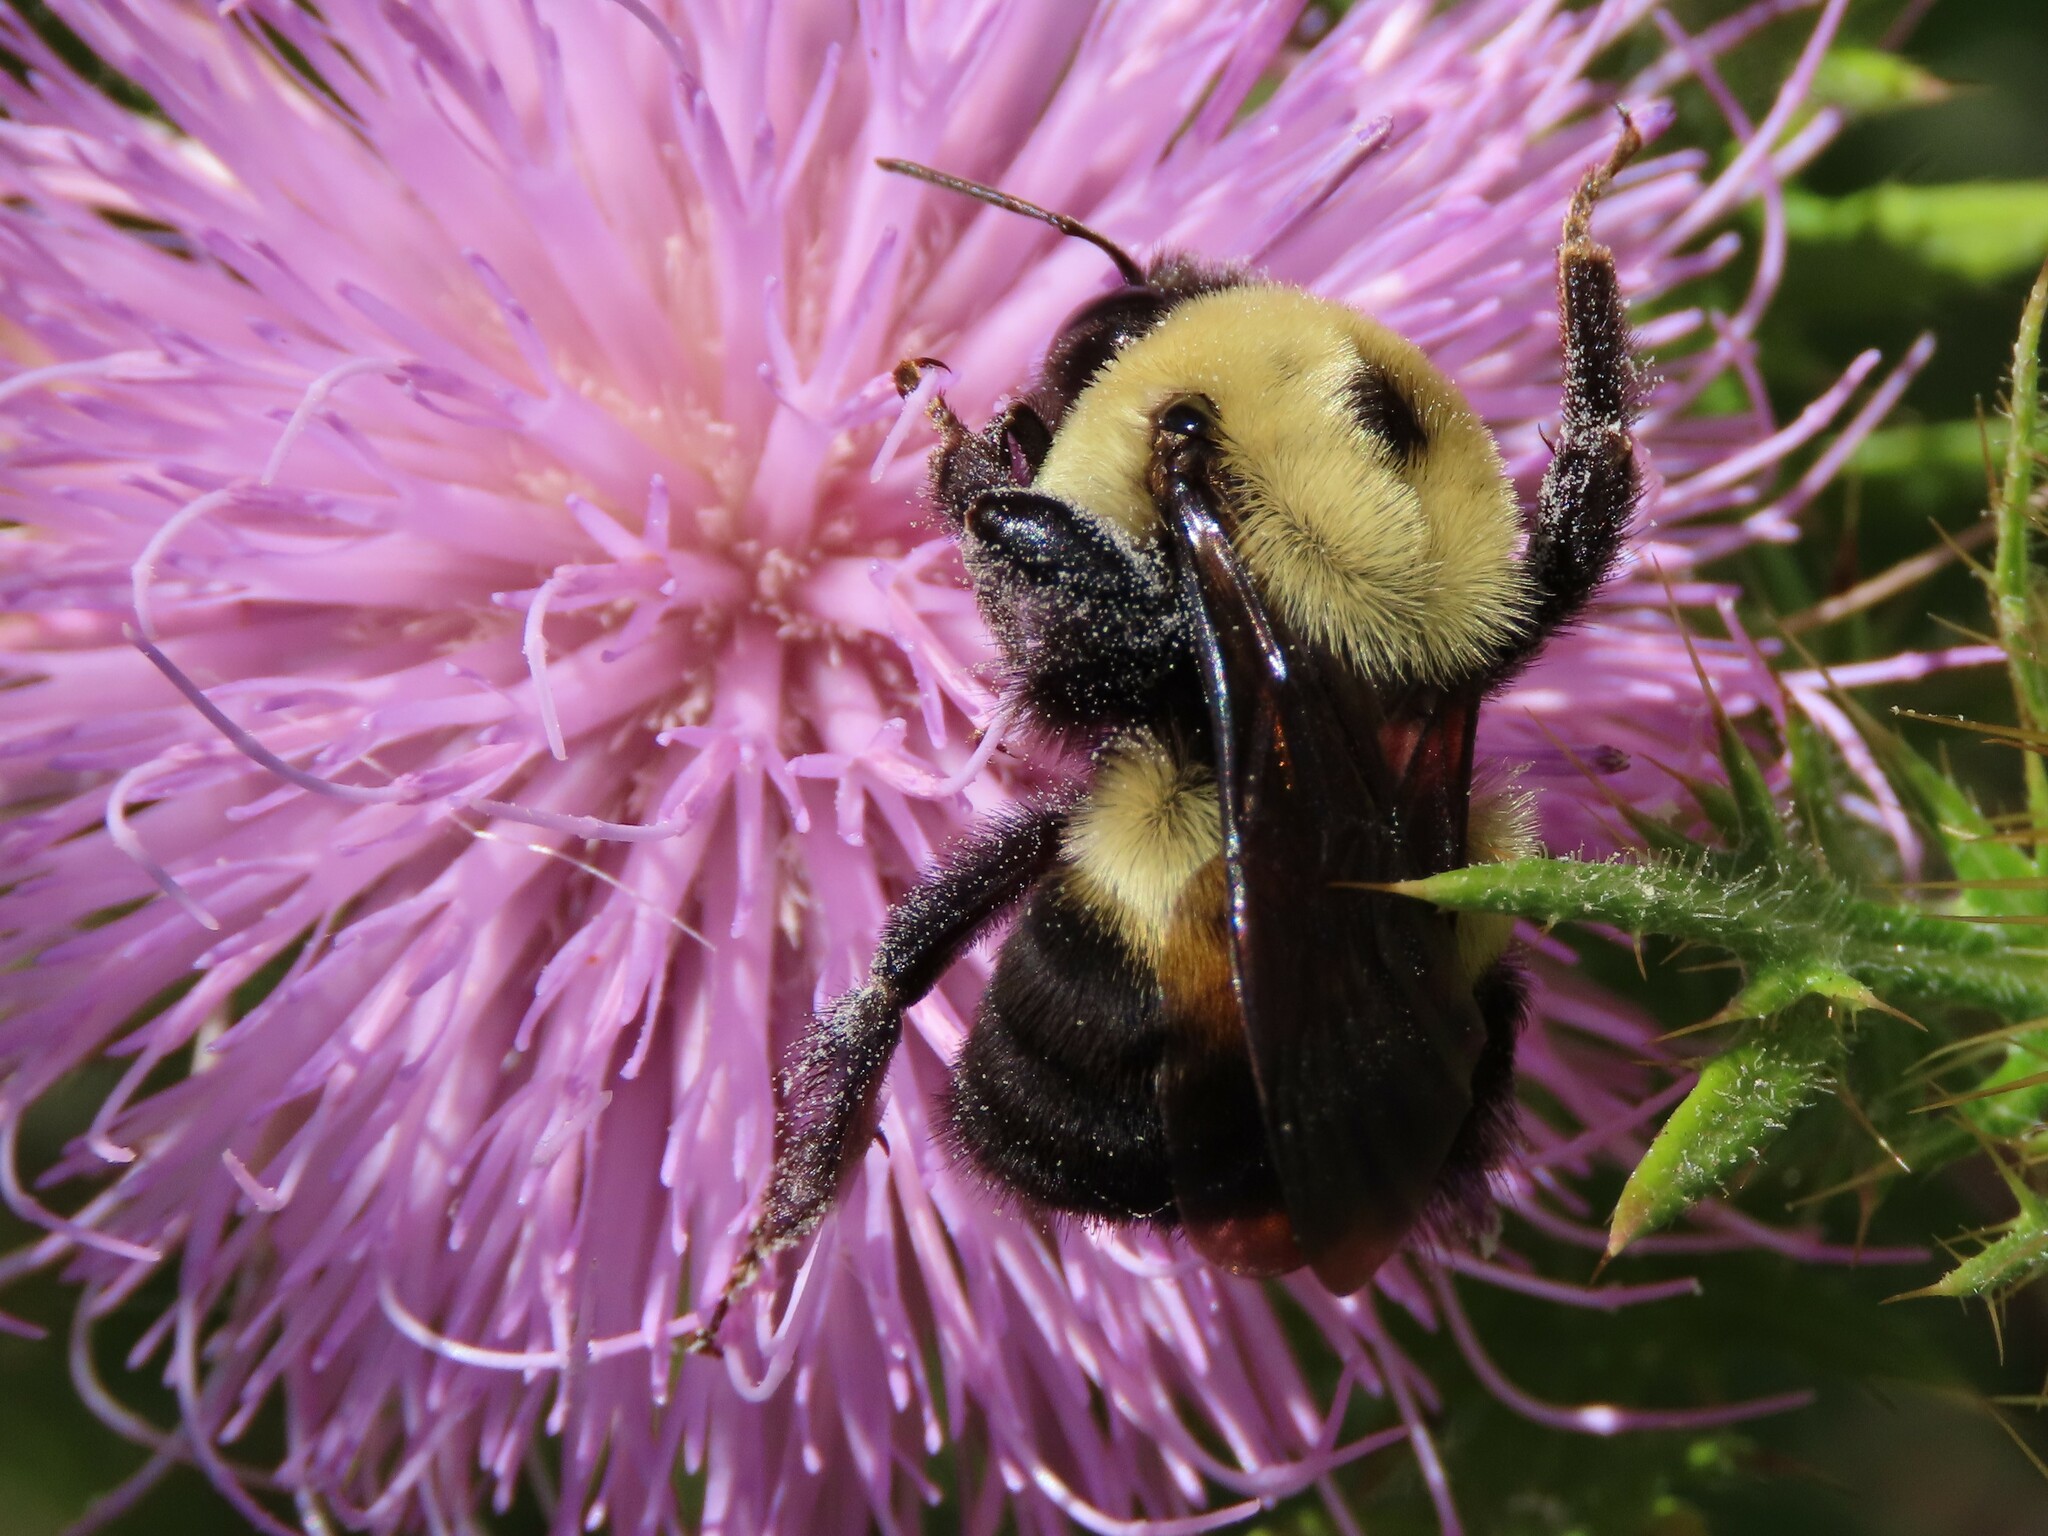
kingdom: Animalia
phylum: Arthropoda
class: Insecta
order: Hymenoptera
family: Apidae
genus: Bombus
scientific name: Bombus griseocollis
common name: Brown-belted bumble bee
